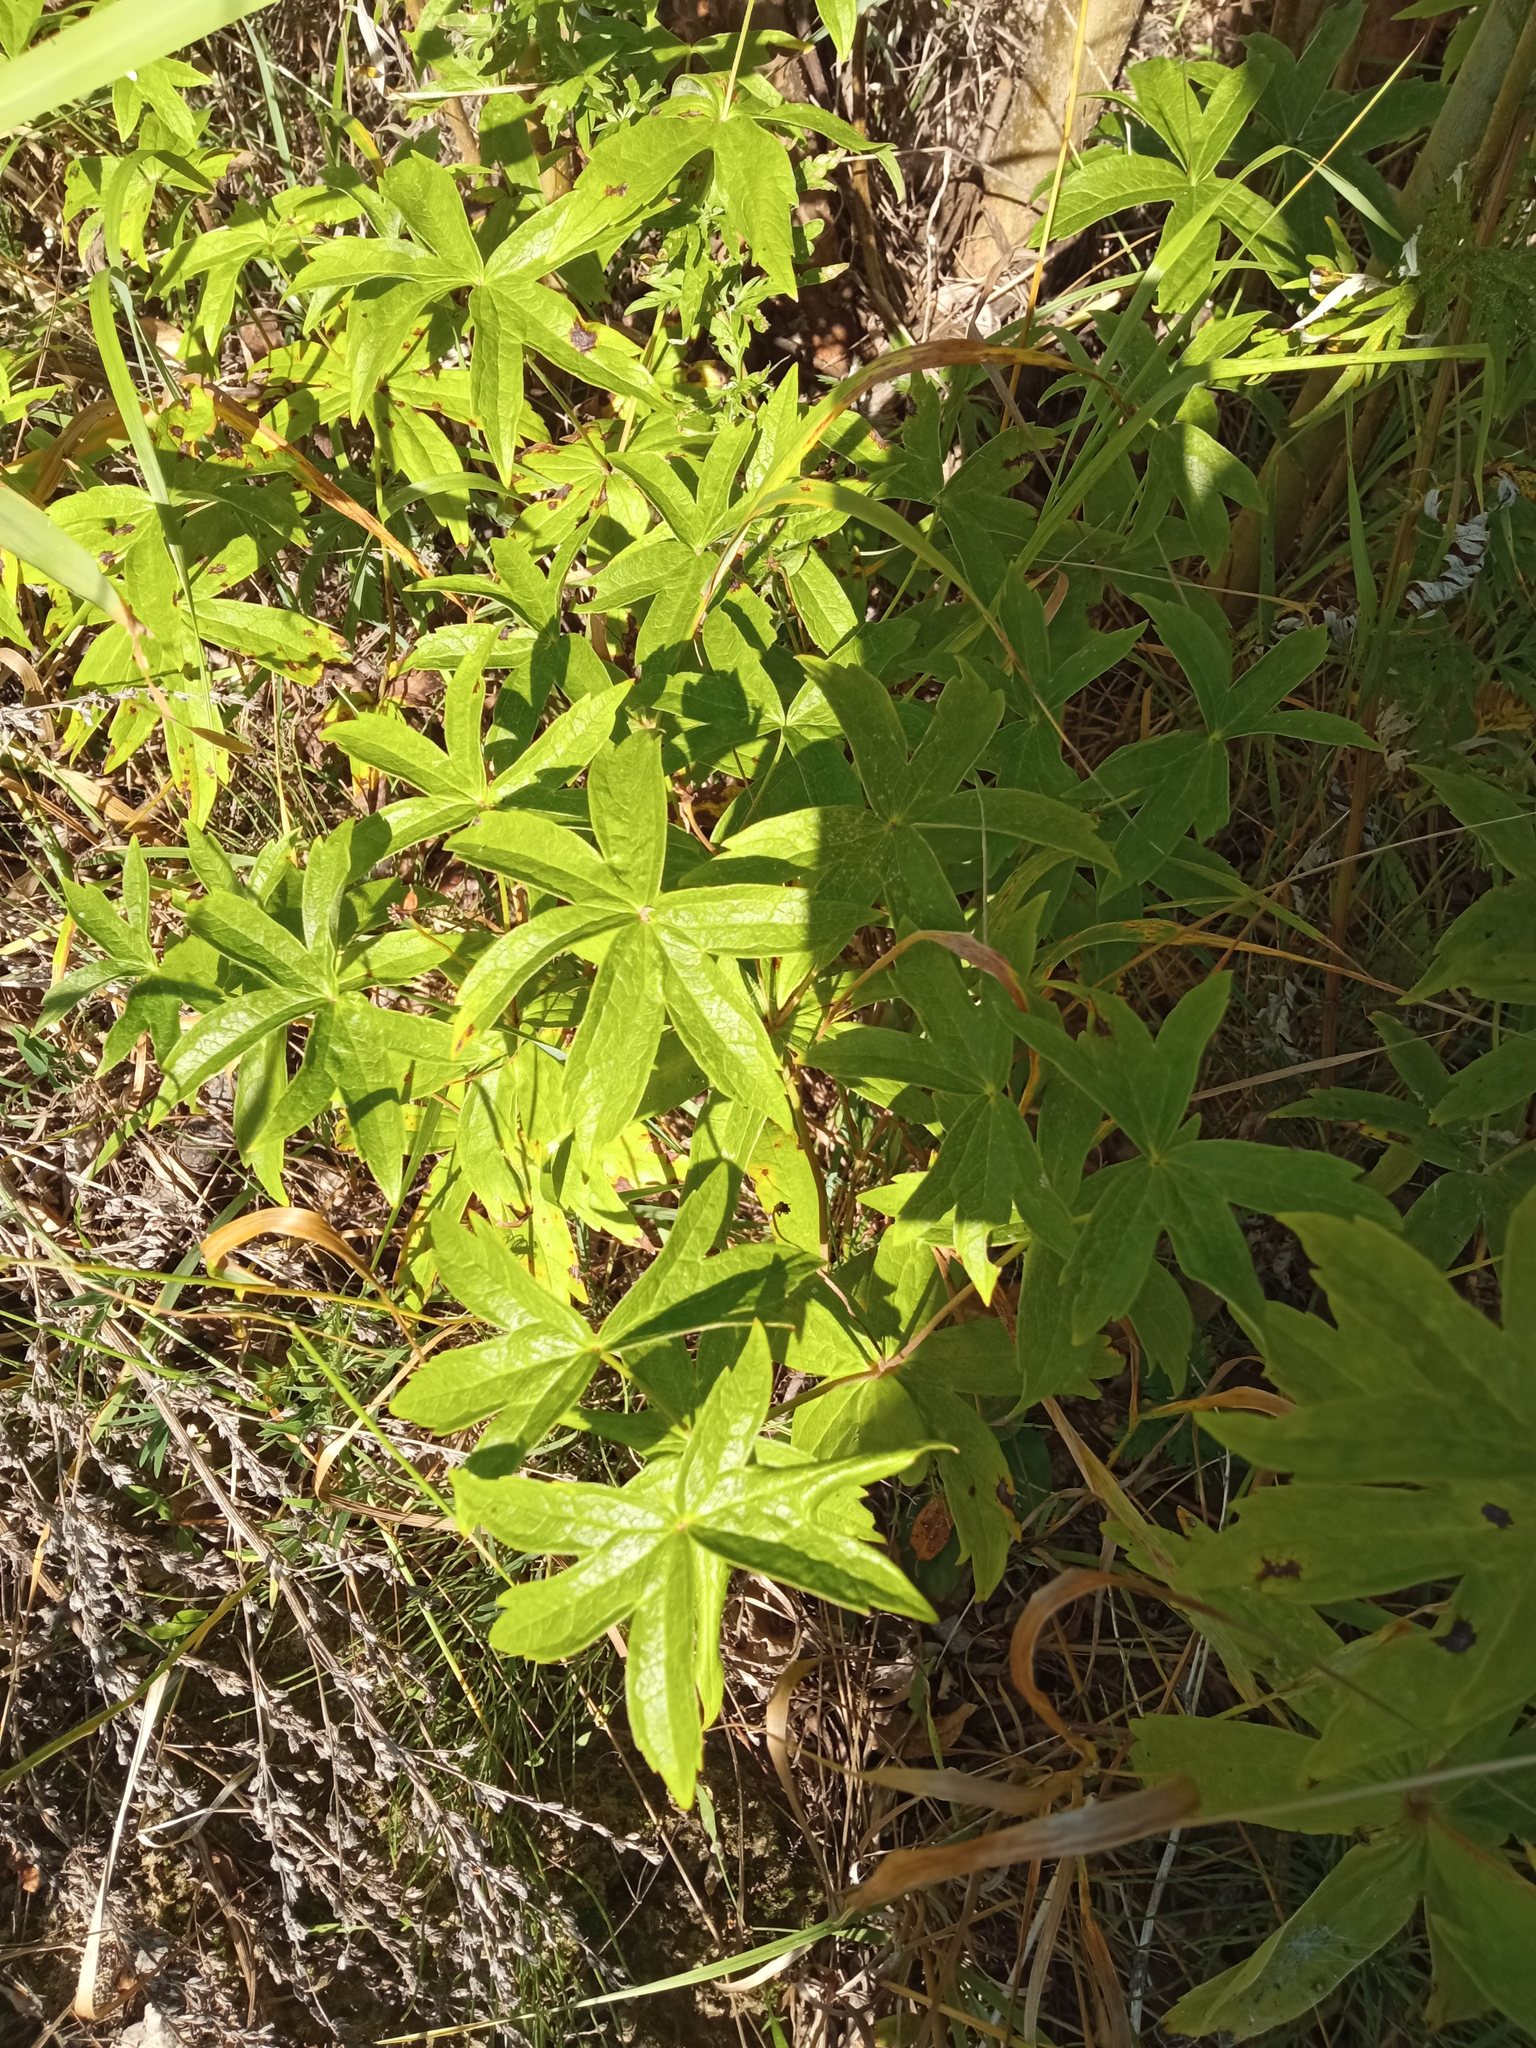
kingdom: Plantae
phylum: Tracheophyta
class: Magnoliopsida
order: Ranunculales
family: Ranunculaceae
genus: Anemonastrum
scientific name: Anemonastrum dichotomum
